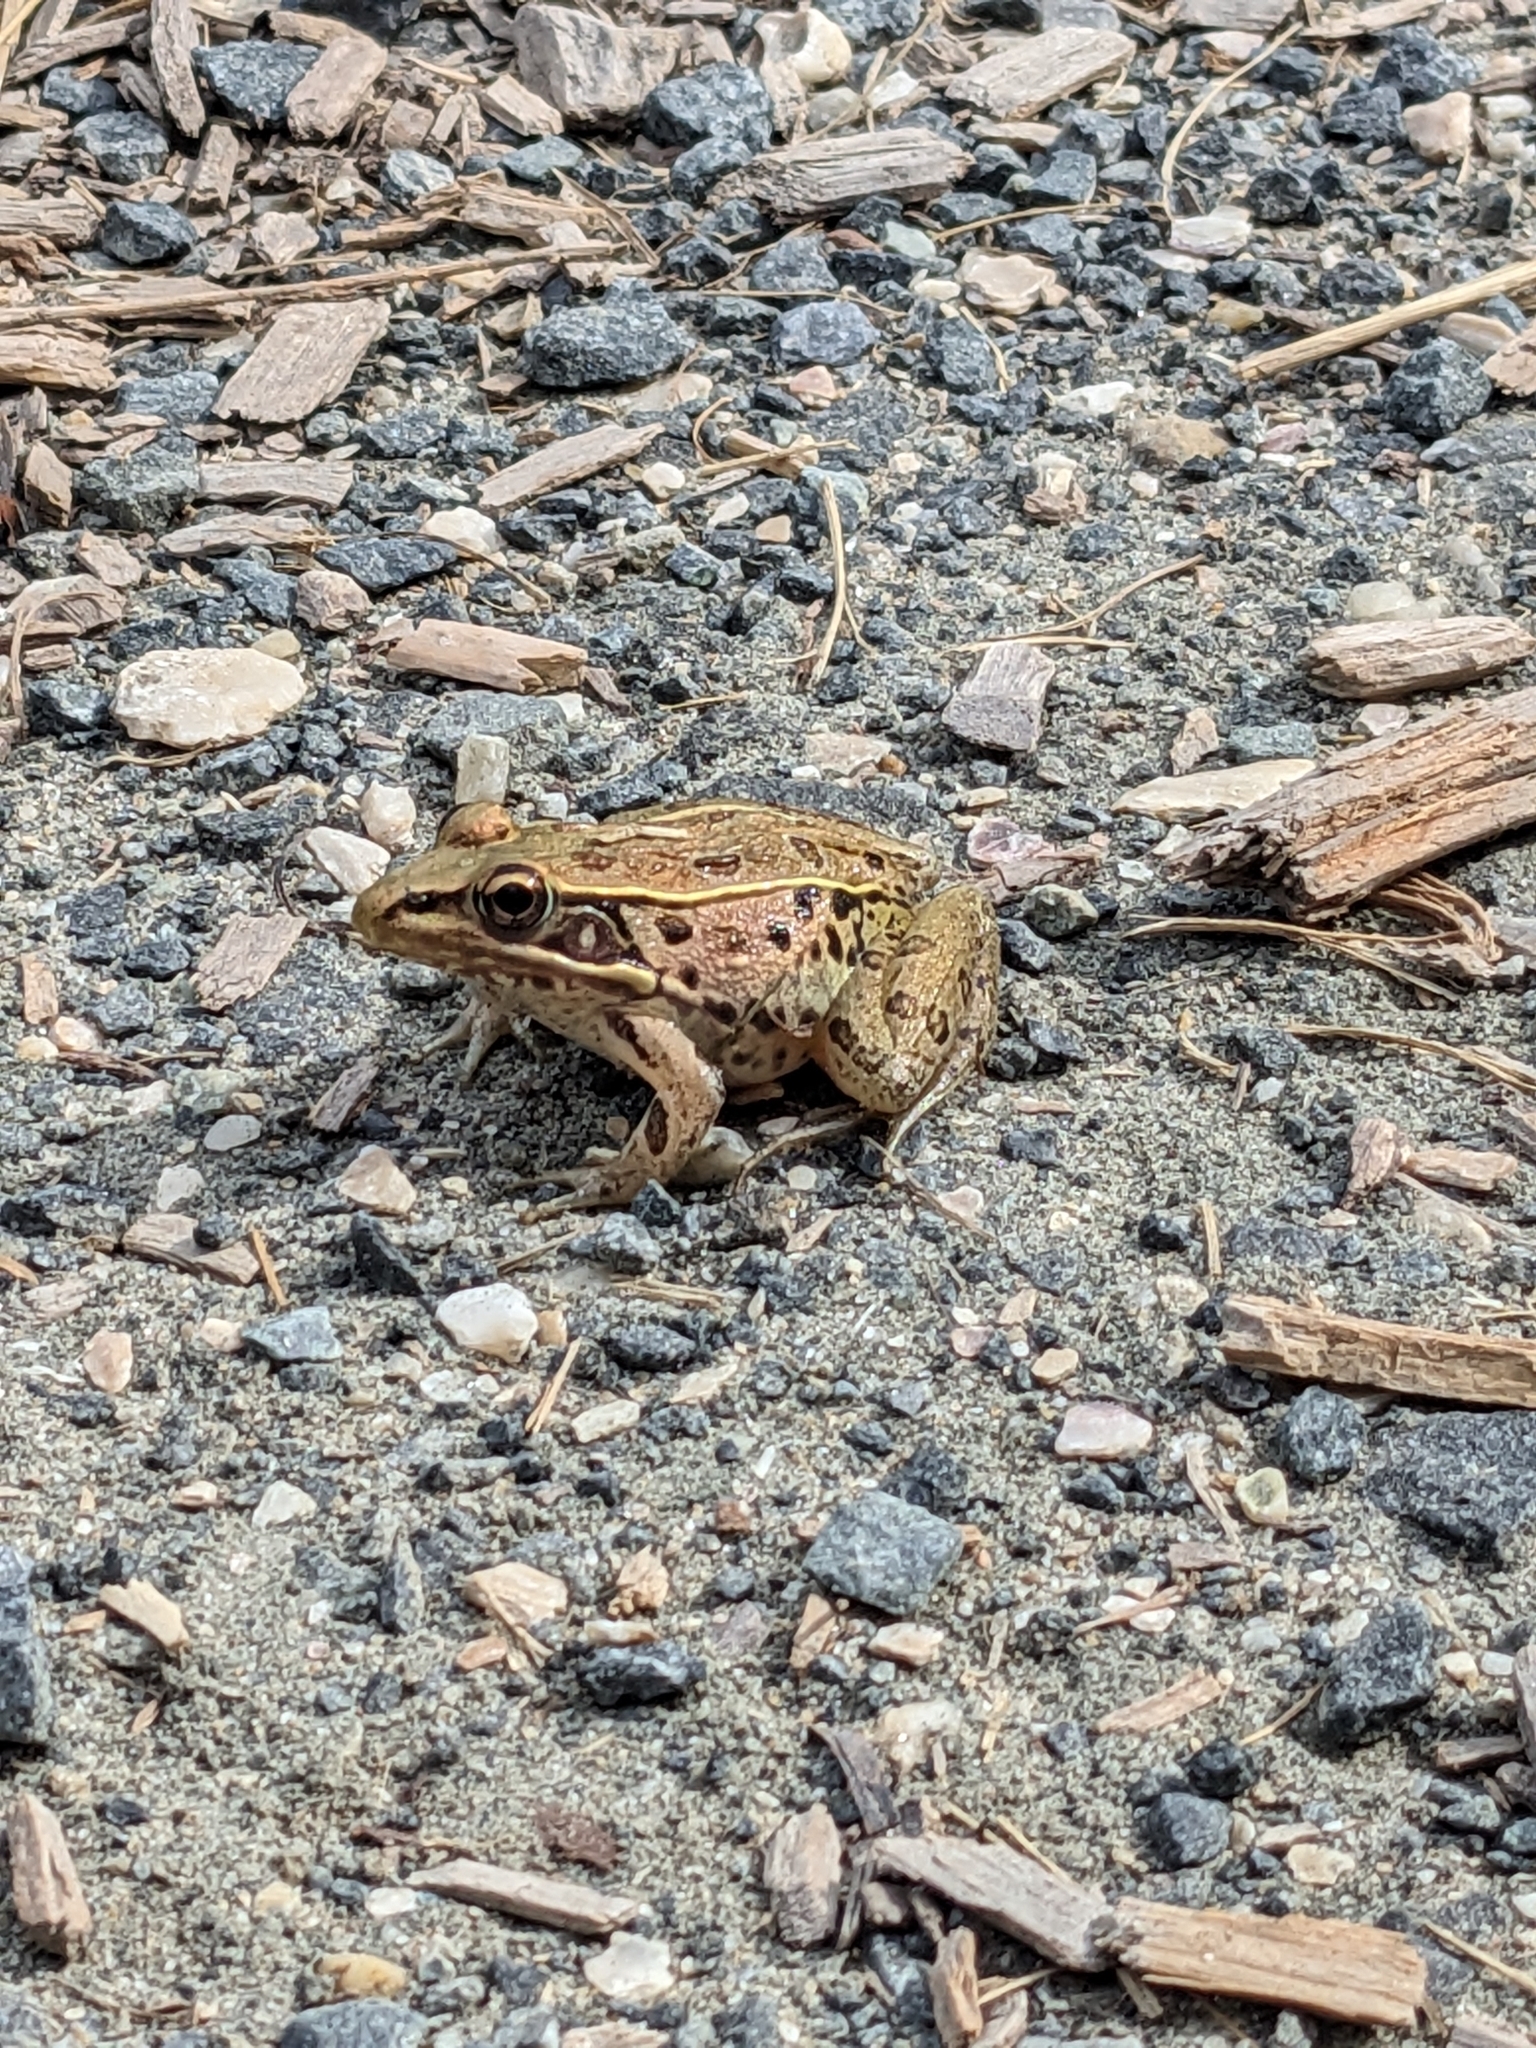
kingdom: Animalia
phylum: Chordata
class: Amphibia
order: Anura
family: Ranidae
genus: Lithobates
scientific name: Lithobates sphenocephalus
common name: Southern leopard frog
